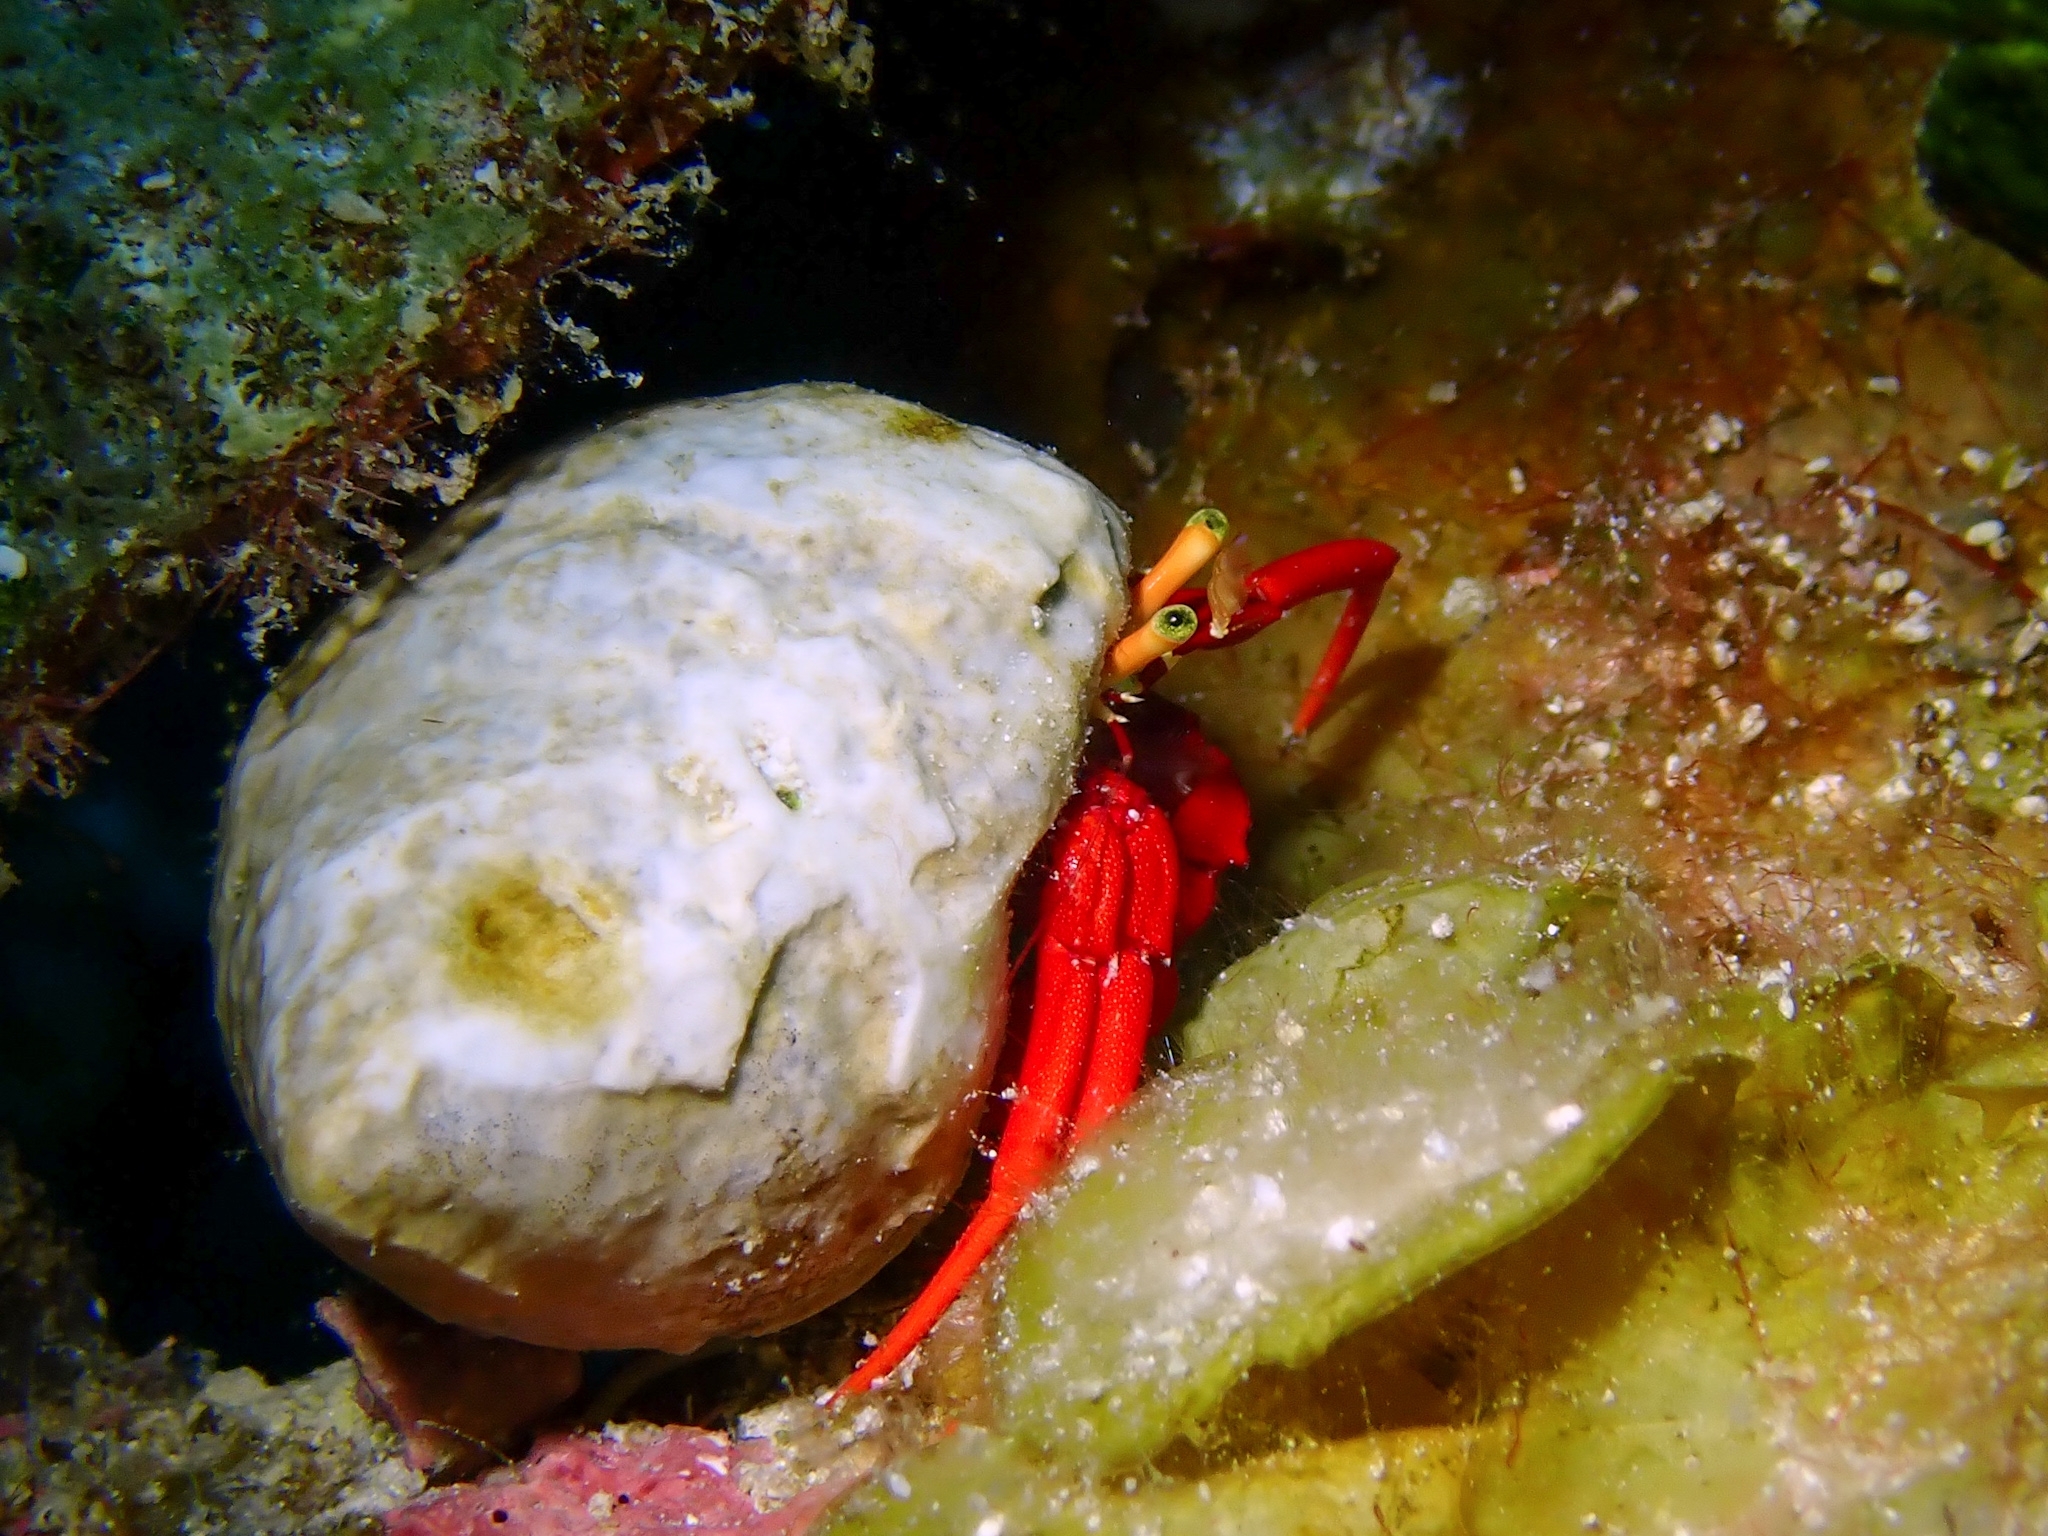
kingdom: Animalia
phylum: Arthropoda
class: Malacostraca
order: Decapoda
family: Diogenidae
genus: Paguristes
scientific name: Paguristes cadenati
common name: Red reef hermit
